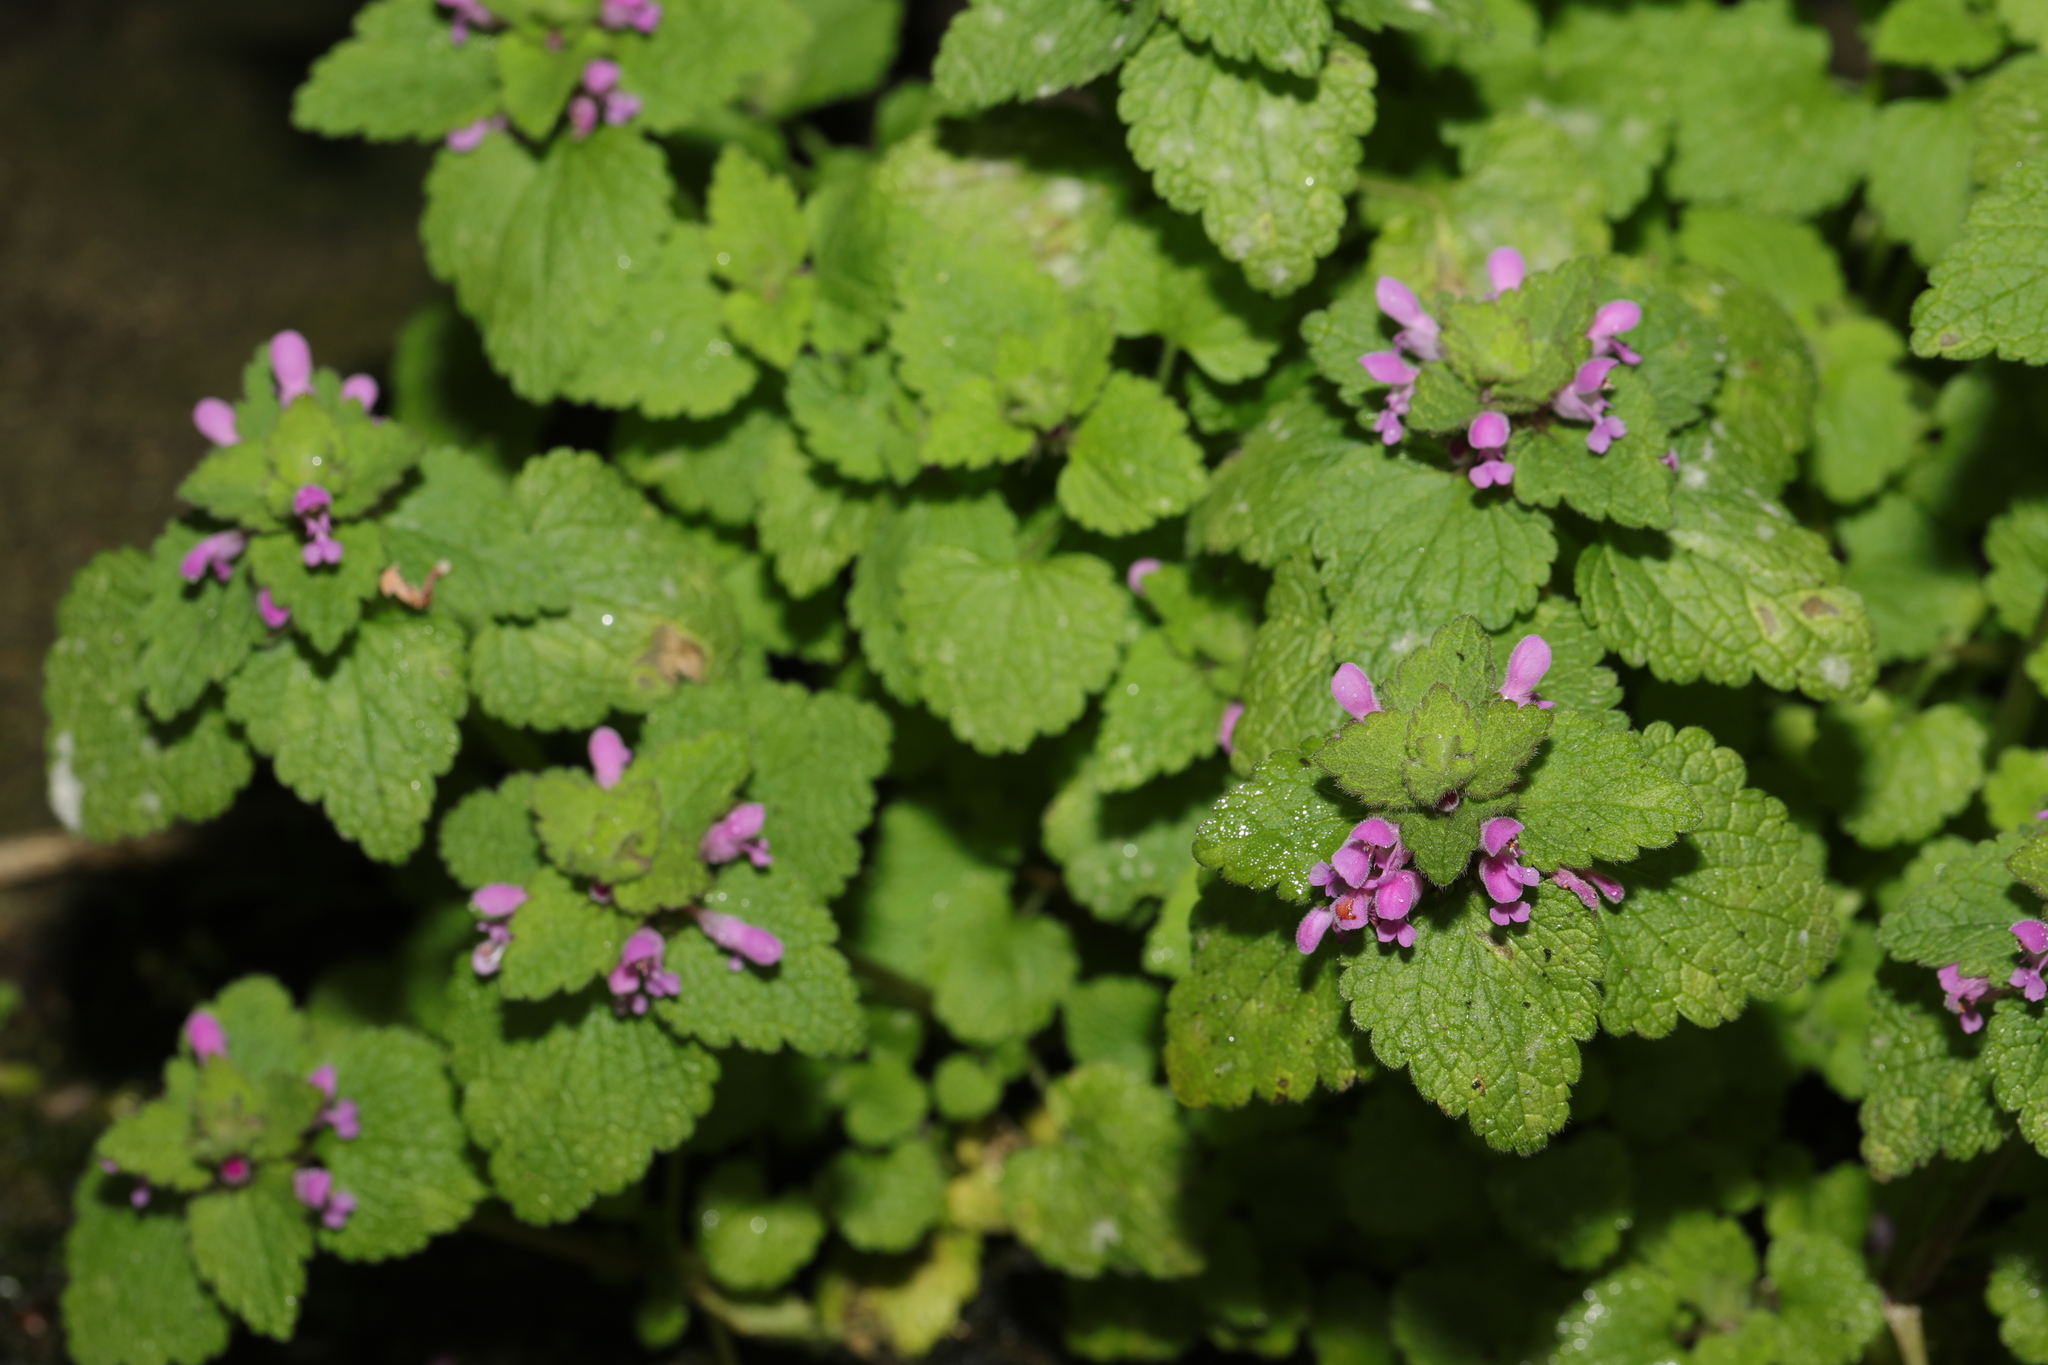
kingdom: Plantae
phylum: Tracheophyta
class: Magnoliopsida
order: Lamiales
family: Lamiaceae
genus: Lamium
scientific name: Lamium purpureum
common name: Red dead-nettle
